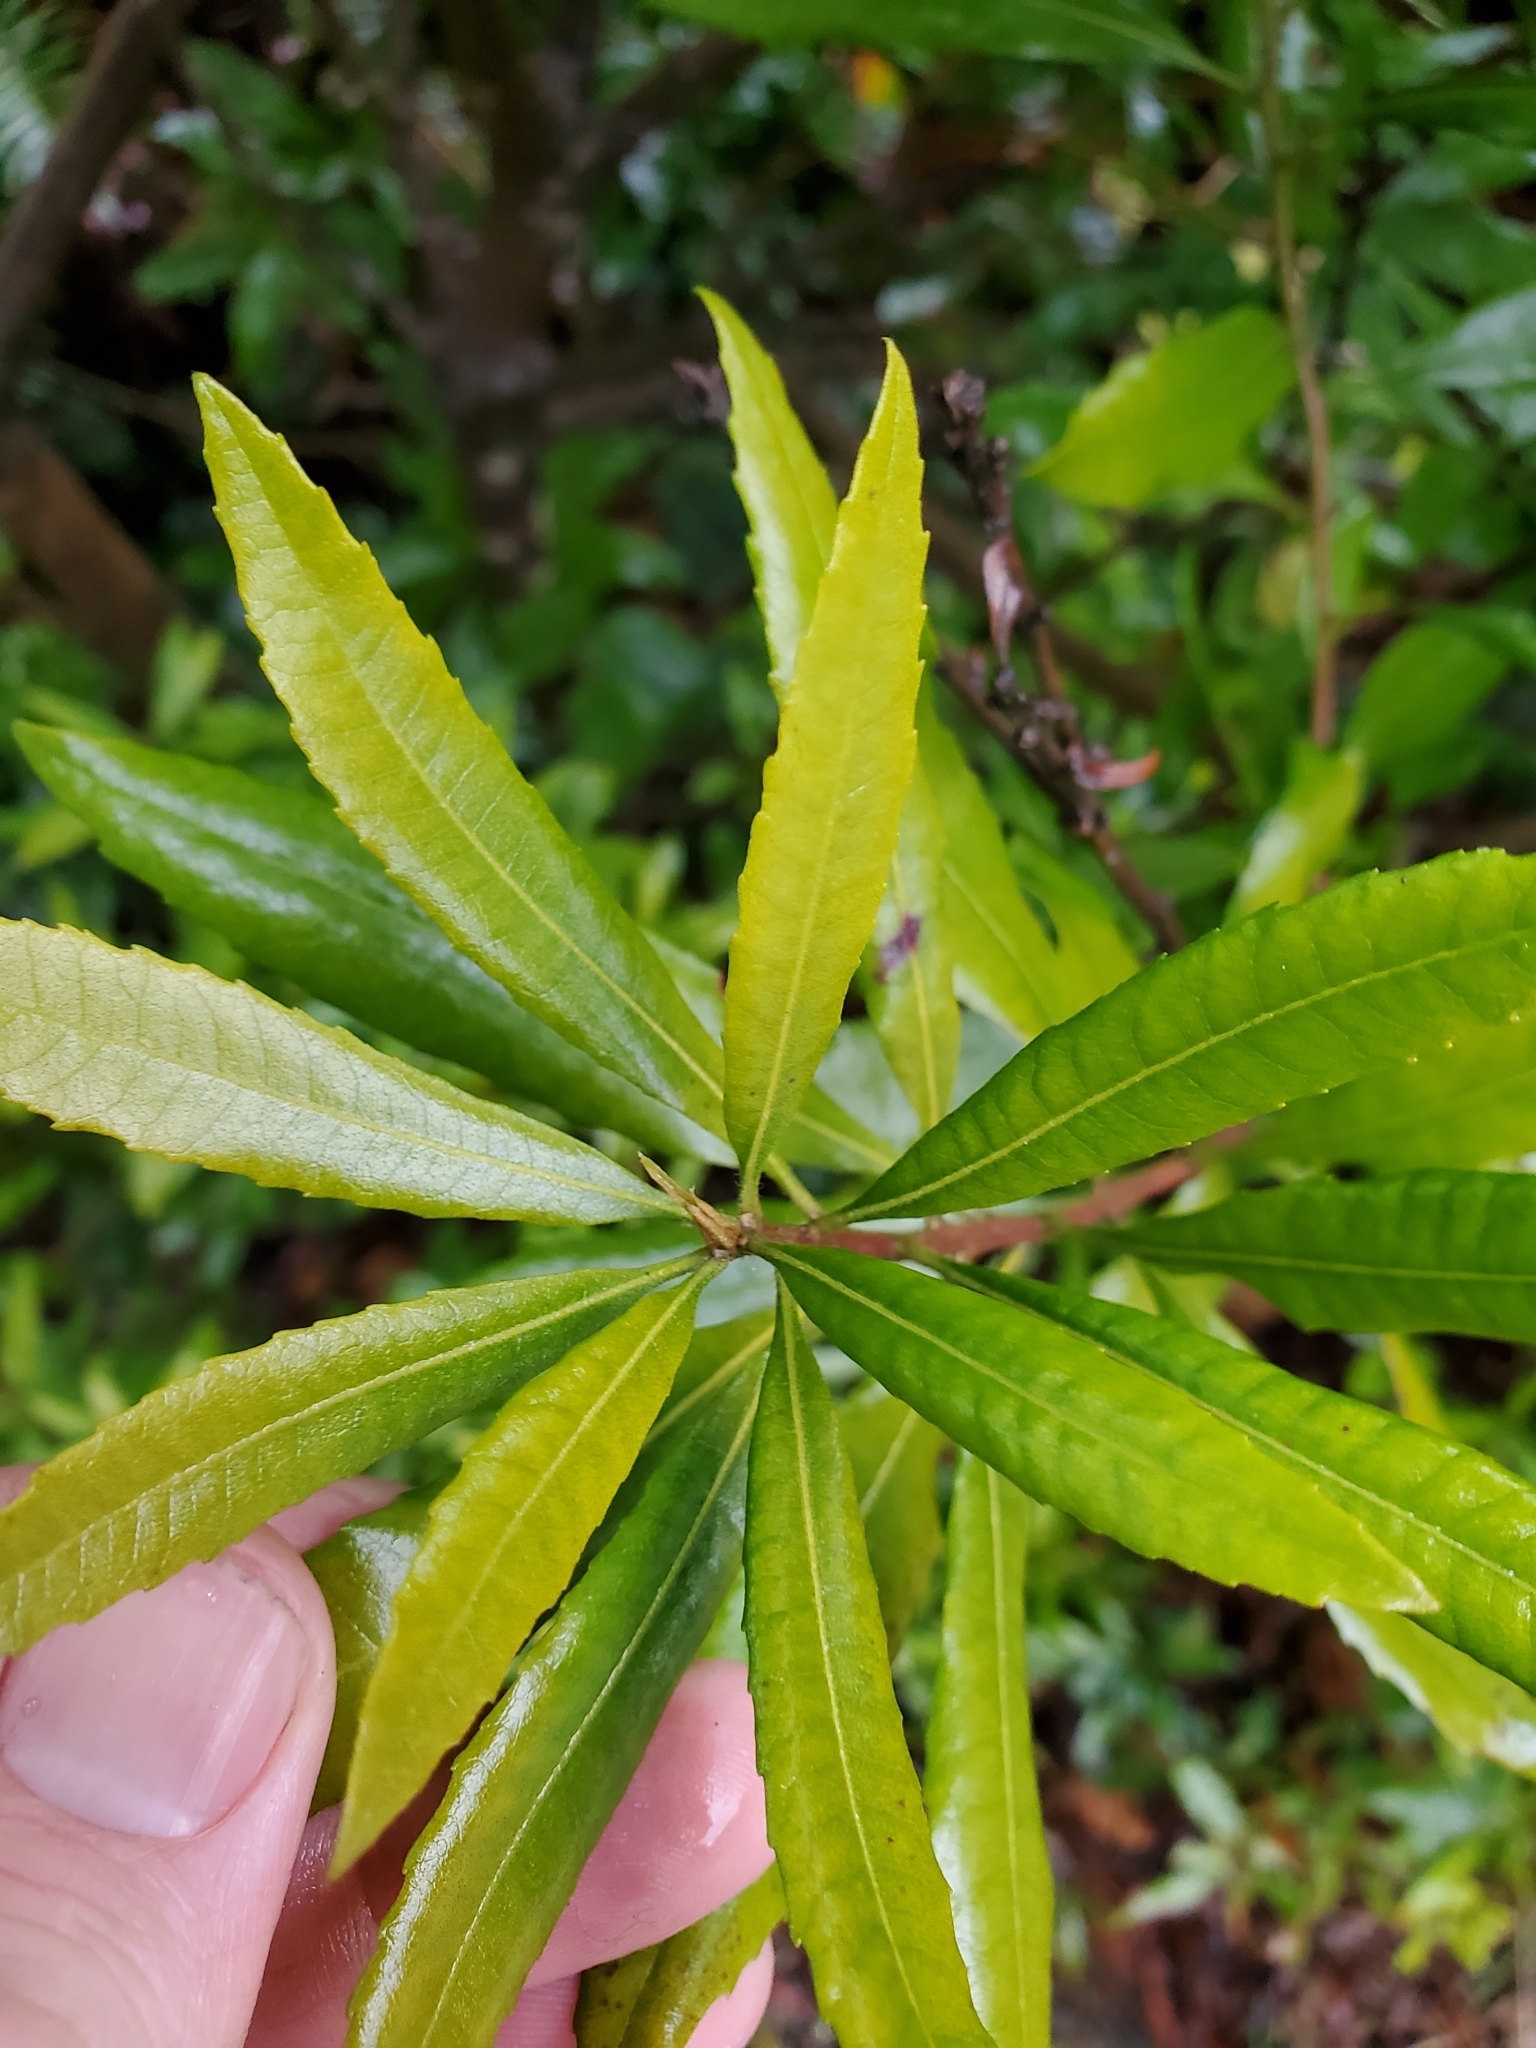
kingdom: Plantae
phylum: Tracheophyta
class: Magnoliopsida
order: Fagales
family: Myricaceae
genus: Morella
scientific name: Morella californica
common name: California wax-myrtle
